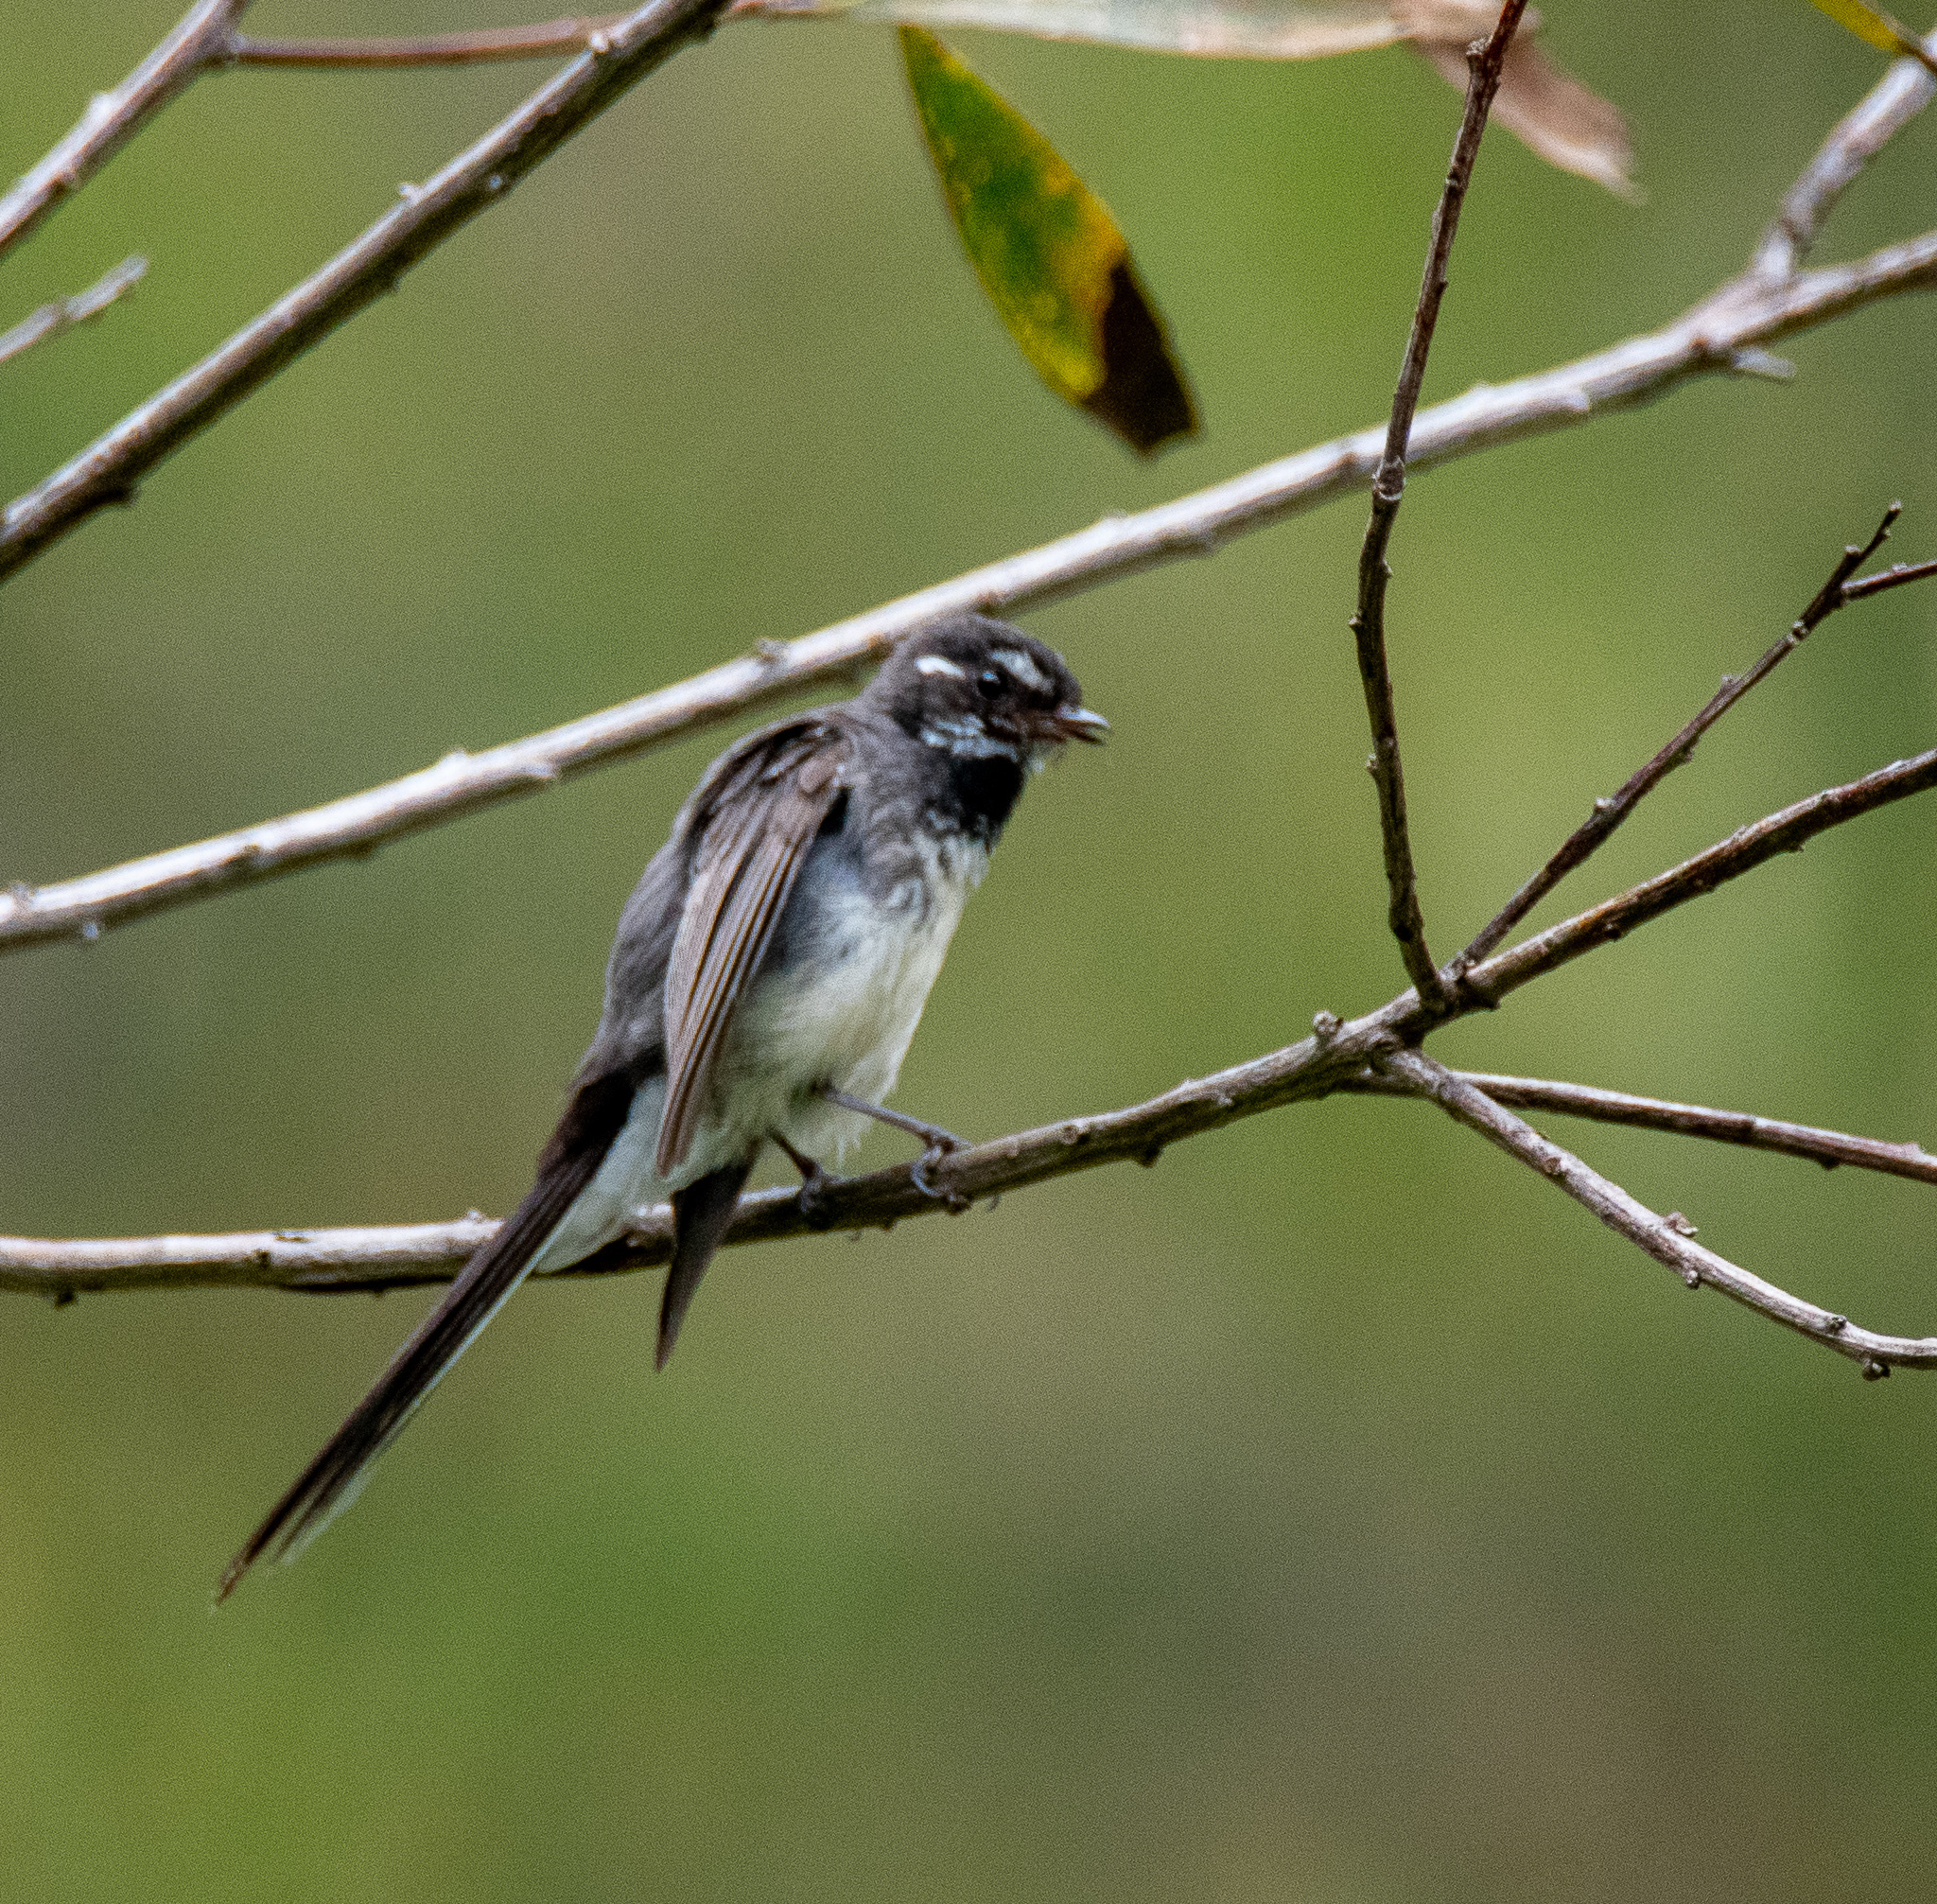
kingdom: Animalia
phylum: Chordata
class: Aves
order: Passeriformes
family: Rhipiduridae
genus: Rhipidura
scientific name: Rhipidura albiscapa
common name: Grey fantail
